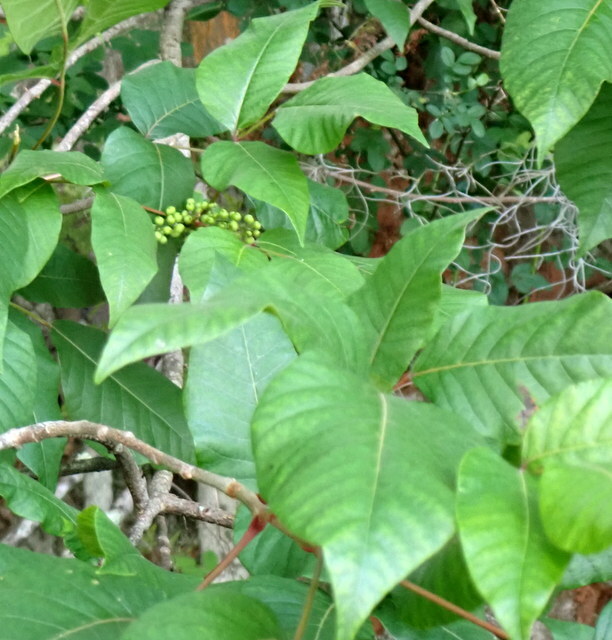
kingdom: Plantae
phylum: Tracheophyta
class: Magnoliopsida
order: Sapindales
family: Anacardiaceae
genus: Toxicodendron
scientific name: Toxicodendron radicans
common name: Poison ivy
